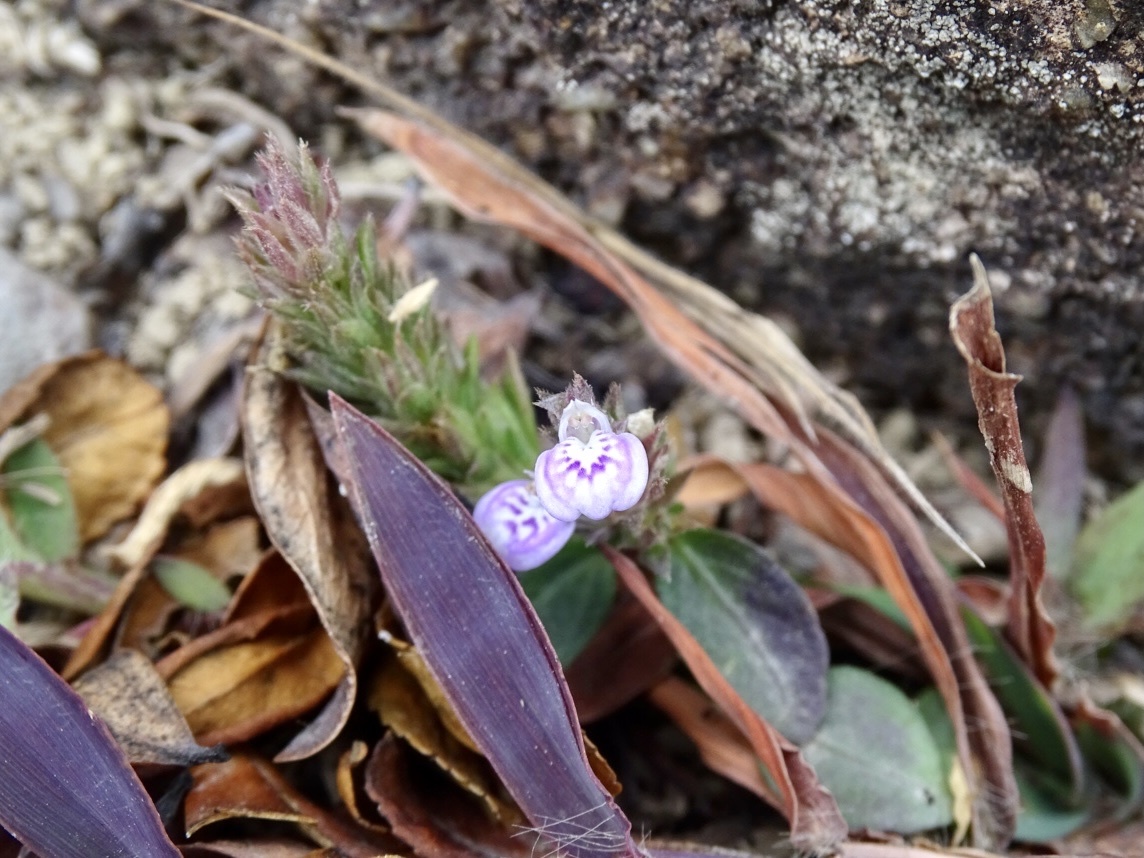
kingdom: Plantae
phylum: Tracheophyta
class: Magnoliopsida
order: Lamiales
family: Acanthaceae
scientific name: Acanthaceae
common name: Acanthaceae
